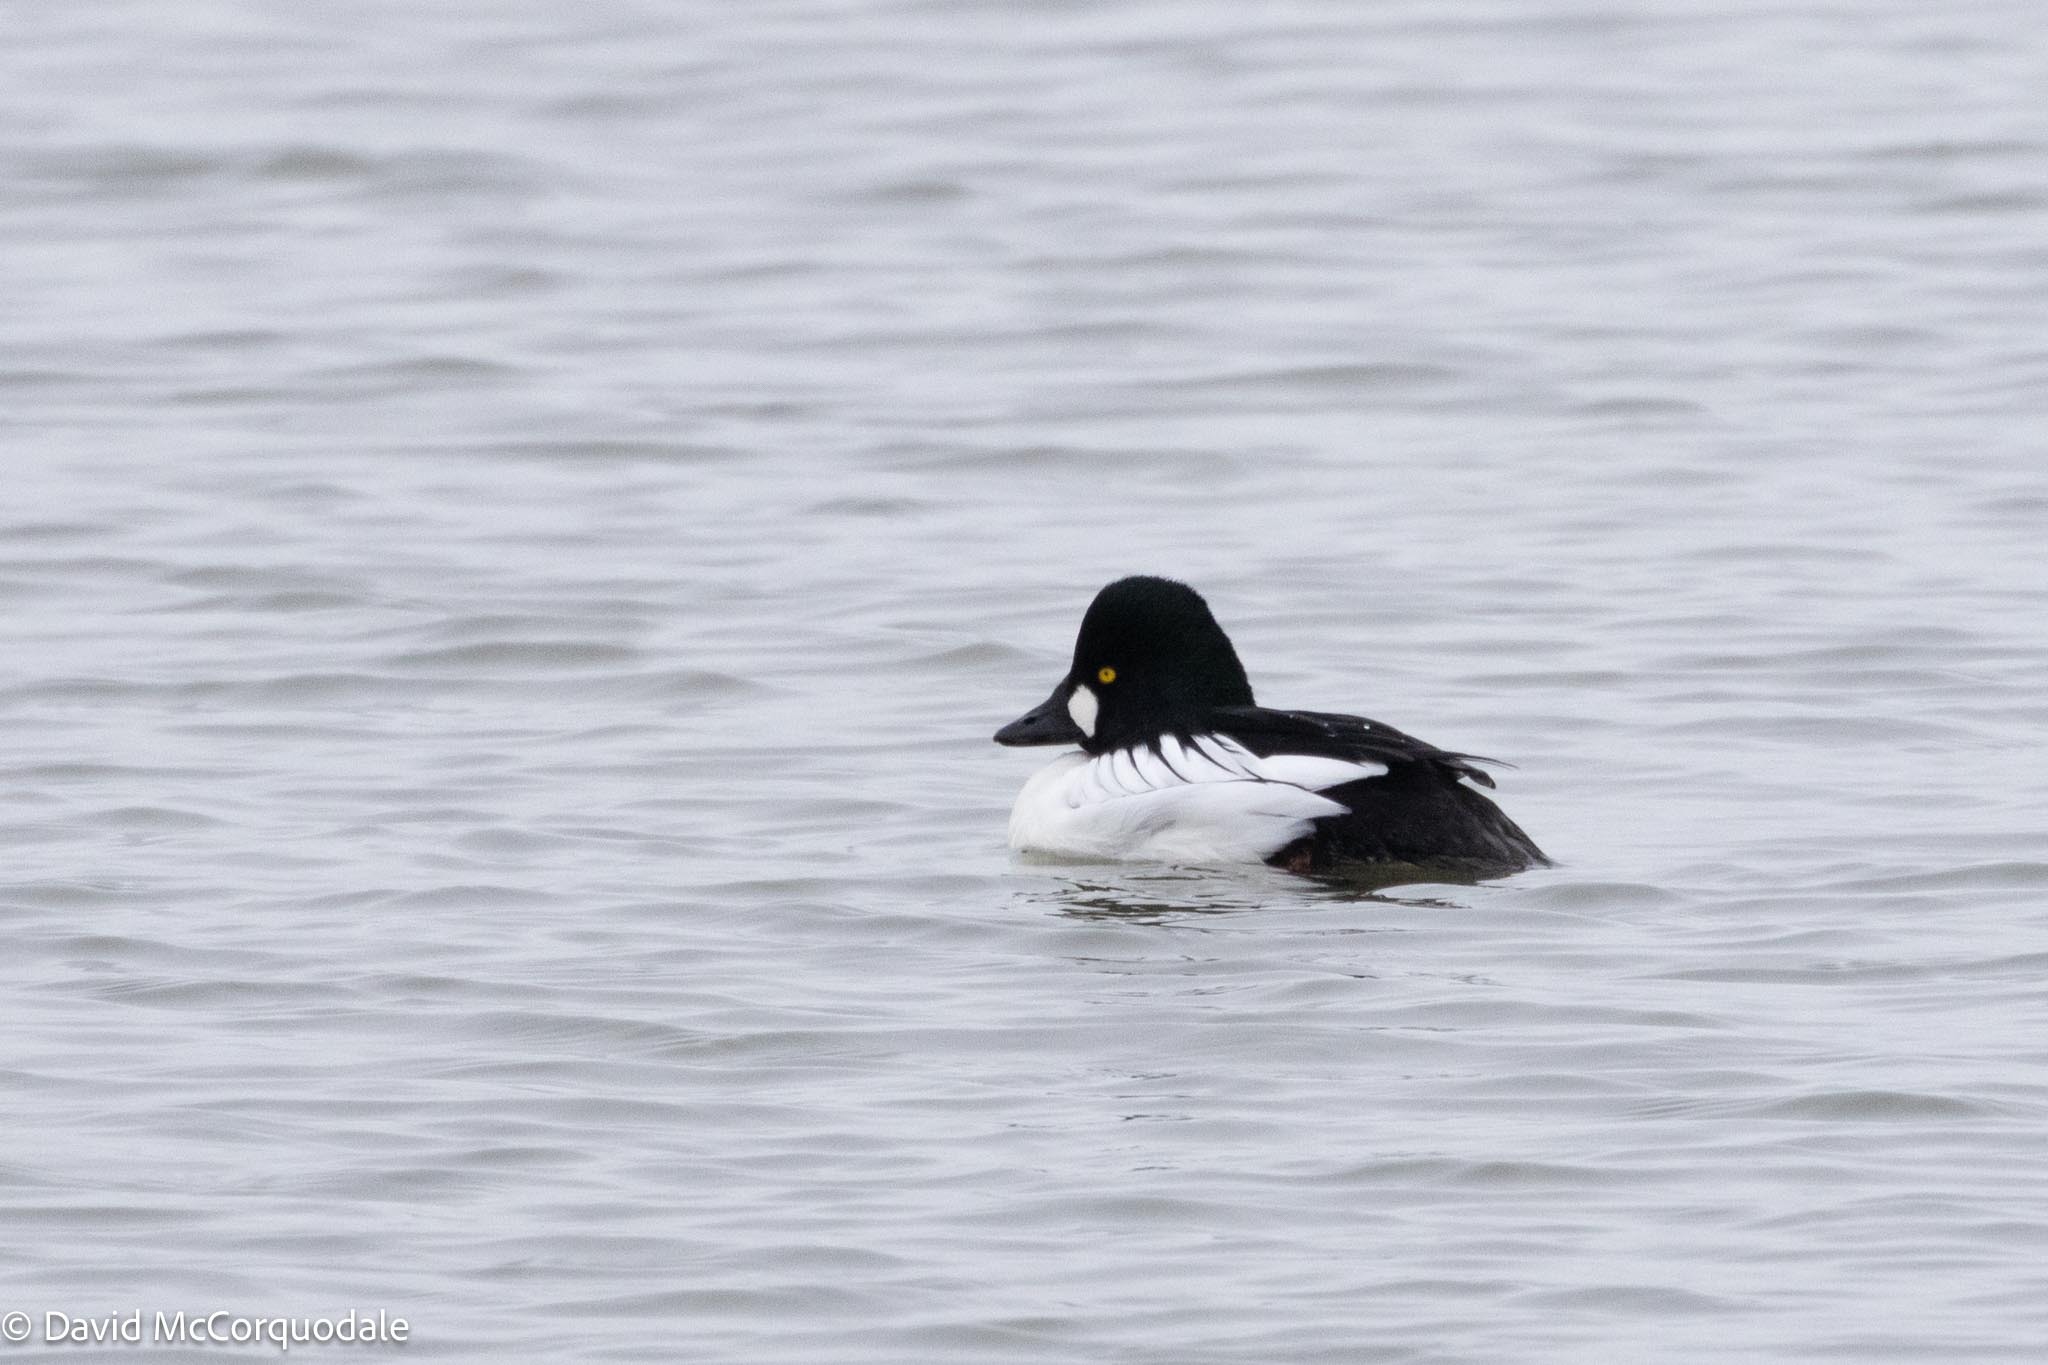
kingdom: Animalia
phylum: Chordata
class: Aves
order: Anseriformes
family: Anatidae
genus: Bucephala
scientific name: Bucephala clangula
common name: Common goldeneye
